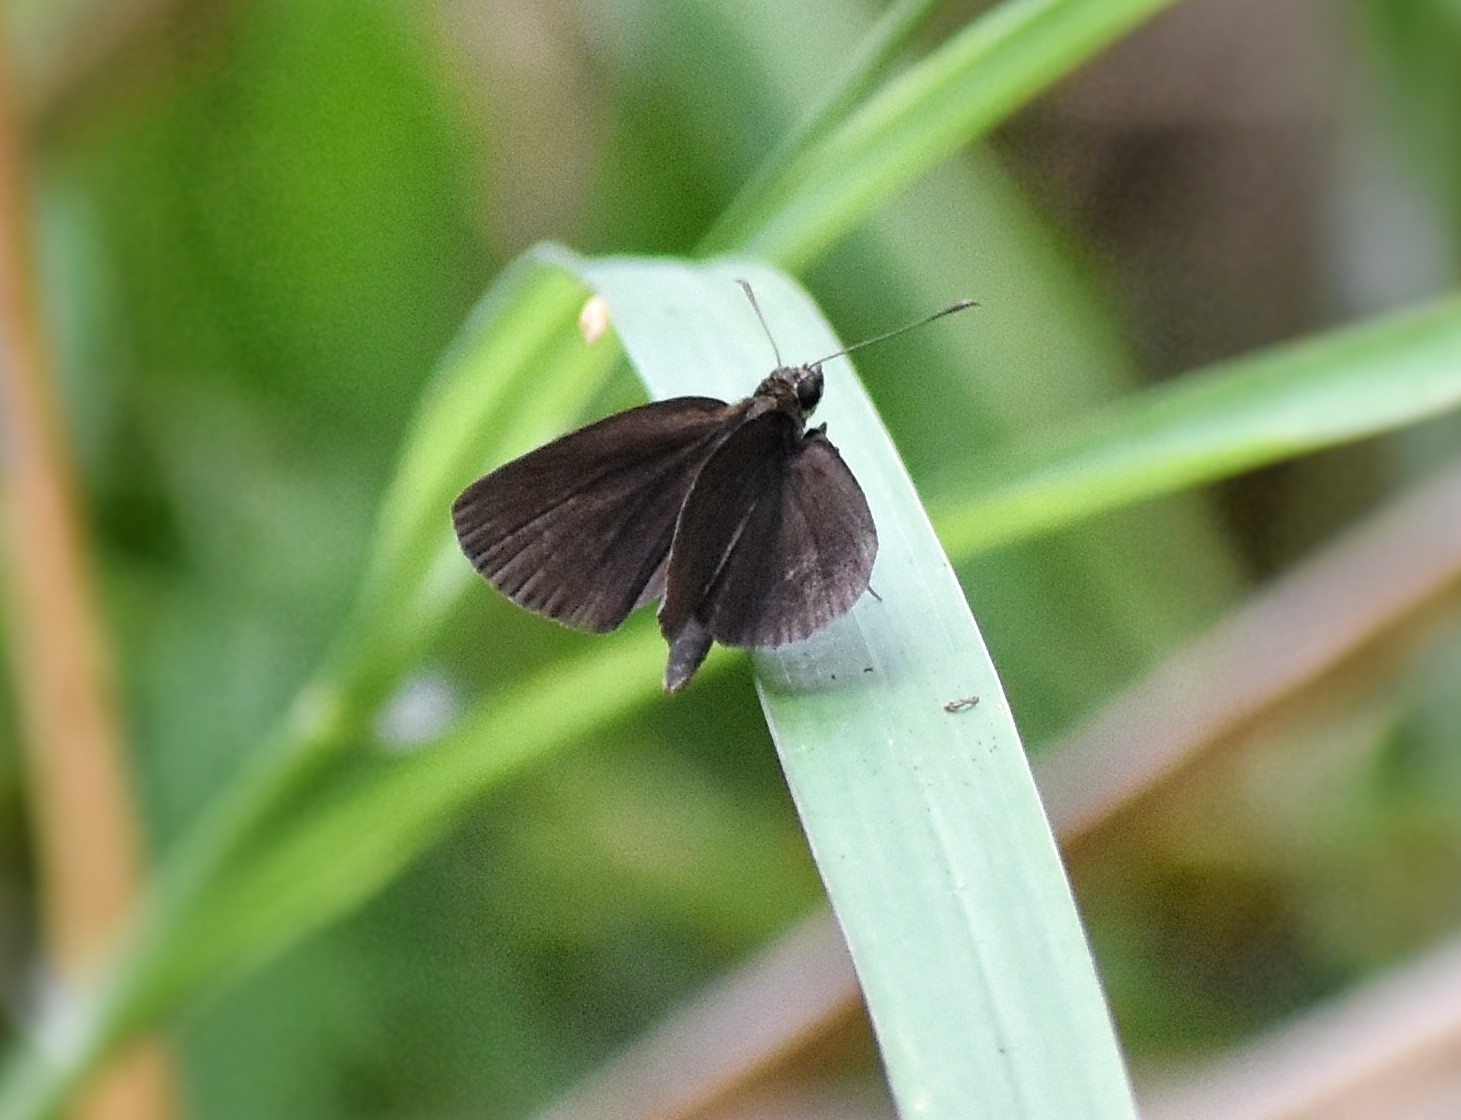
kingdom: Animalia
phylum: Arthropoda
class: Insecta
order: Lepidoptera
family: Hesperiidae
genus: Astictopterus
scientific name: Astictopterus jama
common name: Forest hopper
